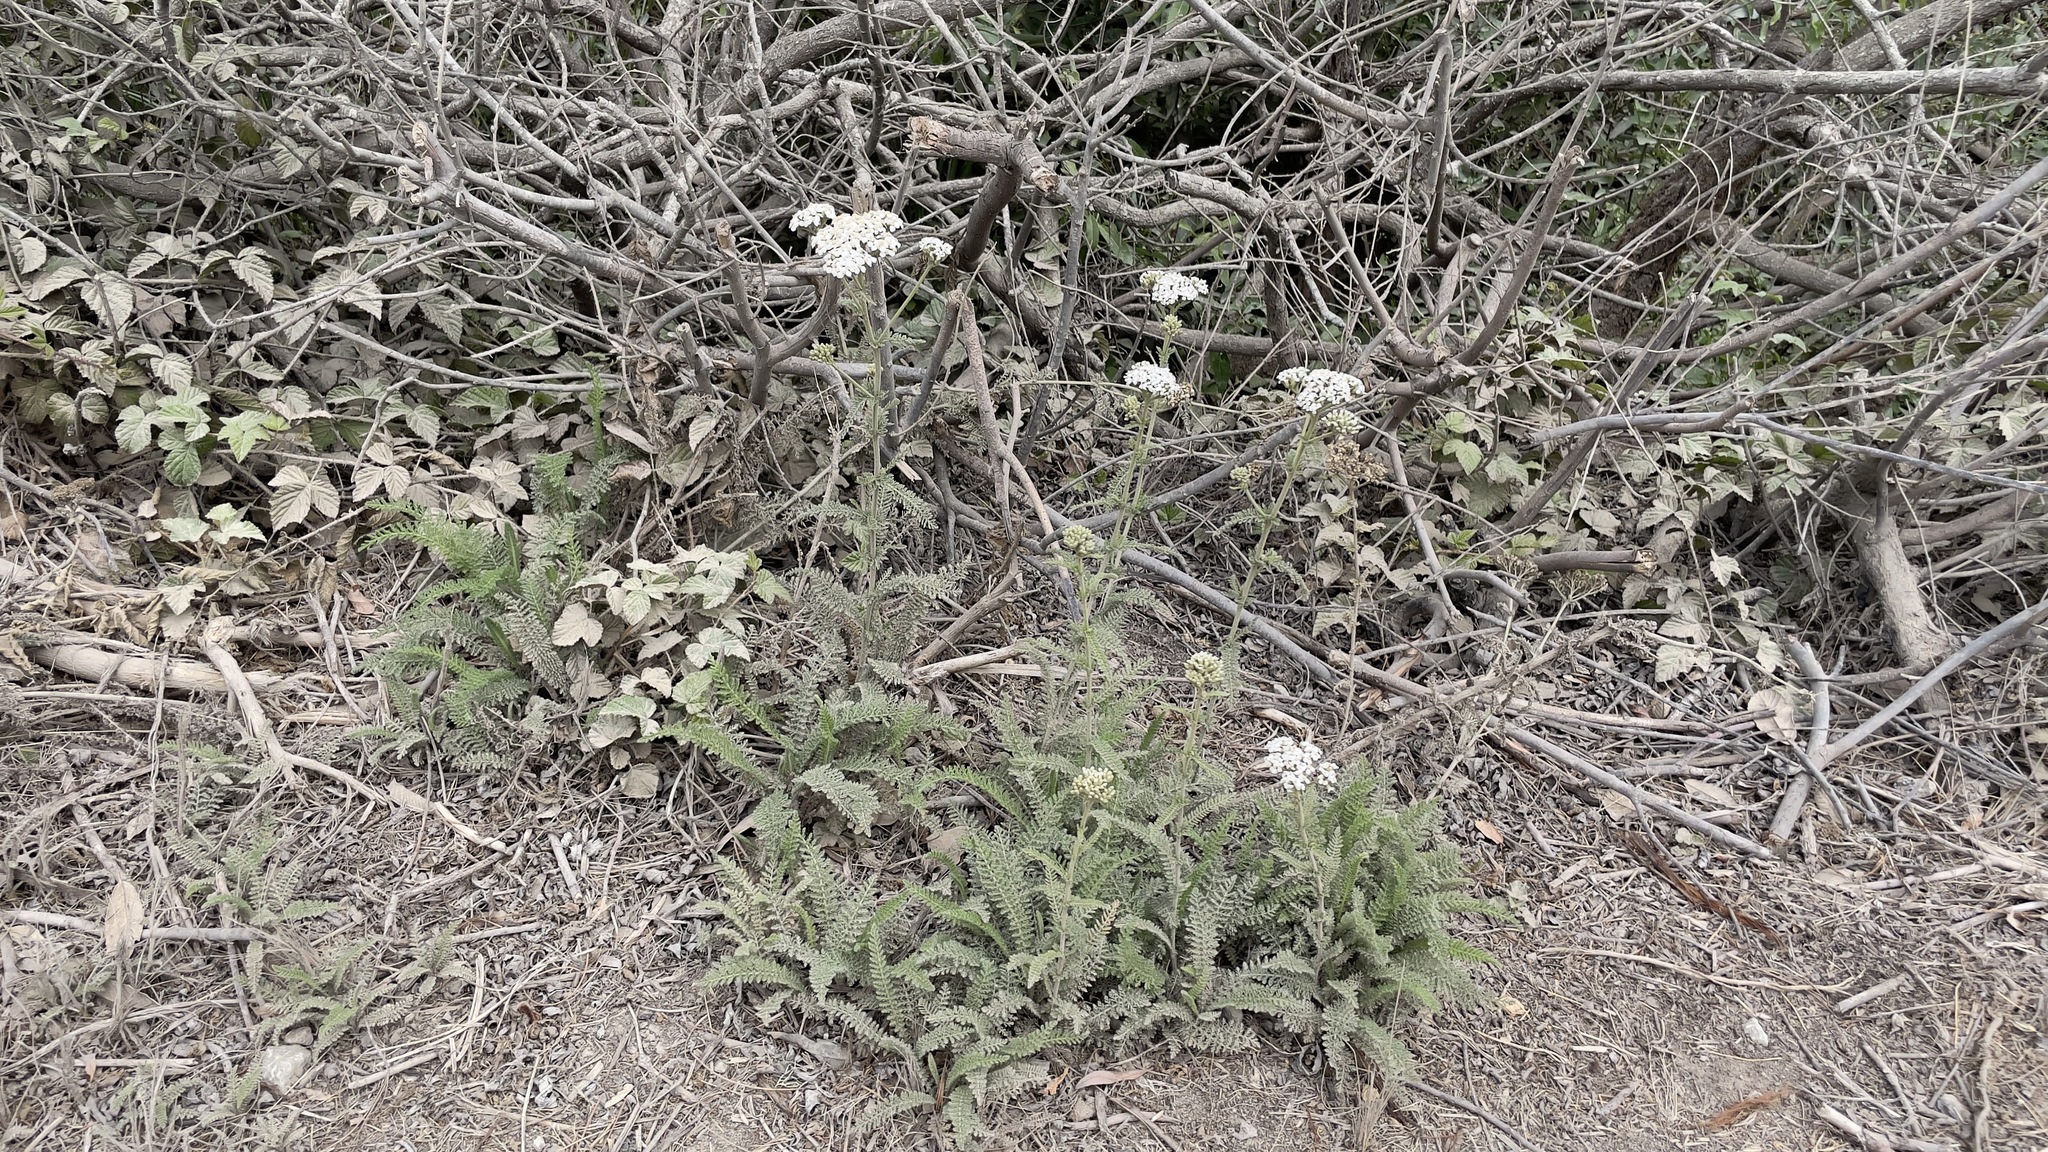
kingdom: Plantae
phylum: Tracheophyta
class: Magnoliopsida
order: Asterales
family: Asteraceae
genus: Achillea
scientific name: Achillea millefolium
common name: Yarrow
